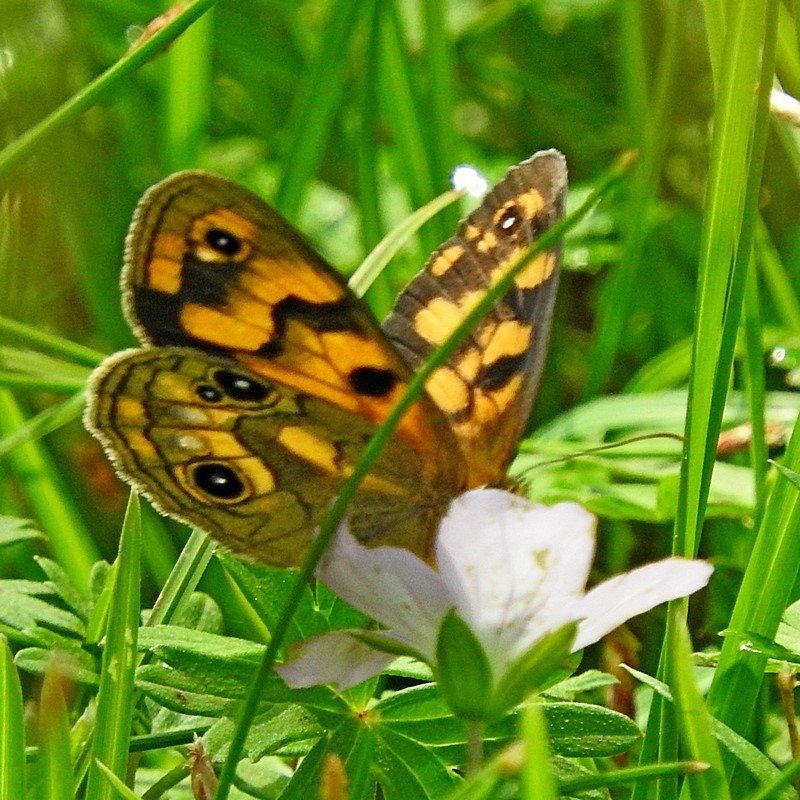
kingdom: Animalia
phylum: Arthropoda
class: Insecta
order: Lepidoptera
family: Nymphalidae
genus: Heteronympha
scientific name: Heteronympha cordace
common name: Bright-eyed brown
